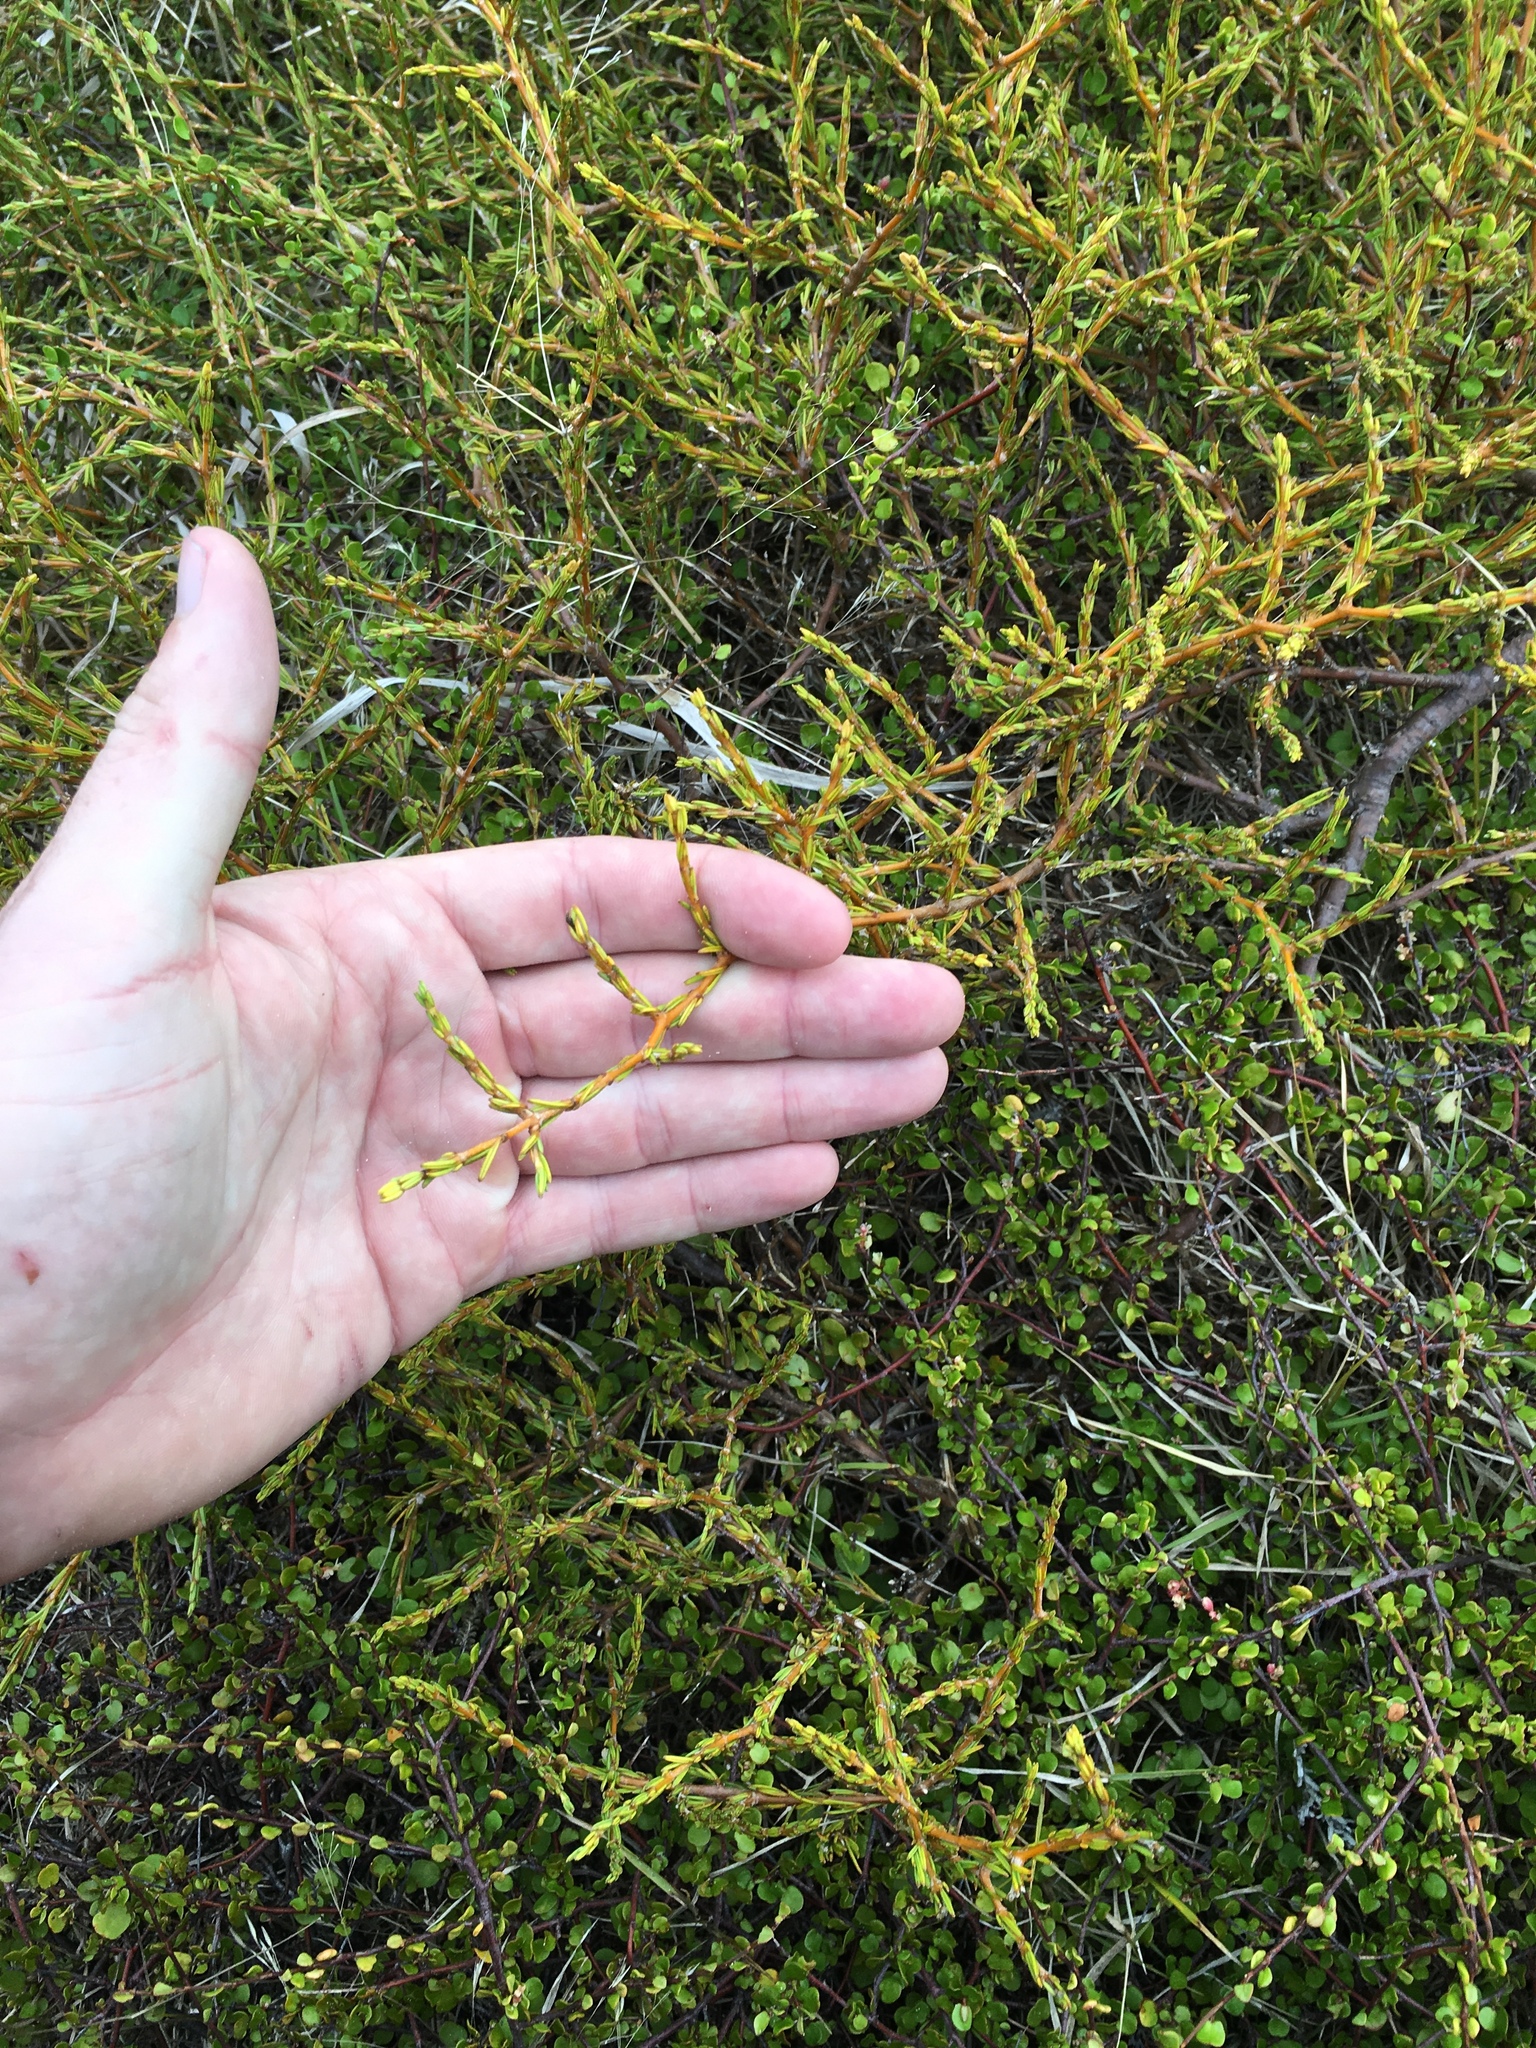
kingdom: Plantae
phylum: Tracheophyta
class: Magnoliopsida
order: Gentianales
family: Rubiaceae
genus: Coprosma
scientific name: Coprosma acerosa
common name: Sand coprosma
